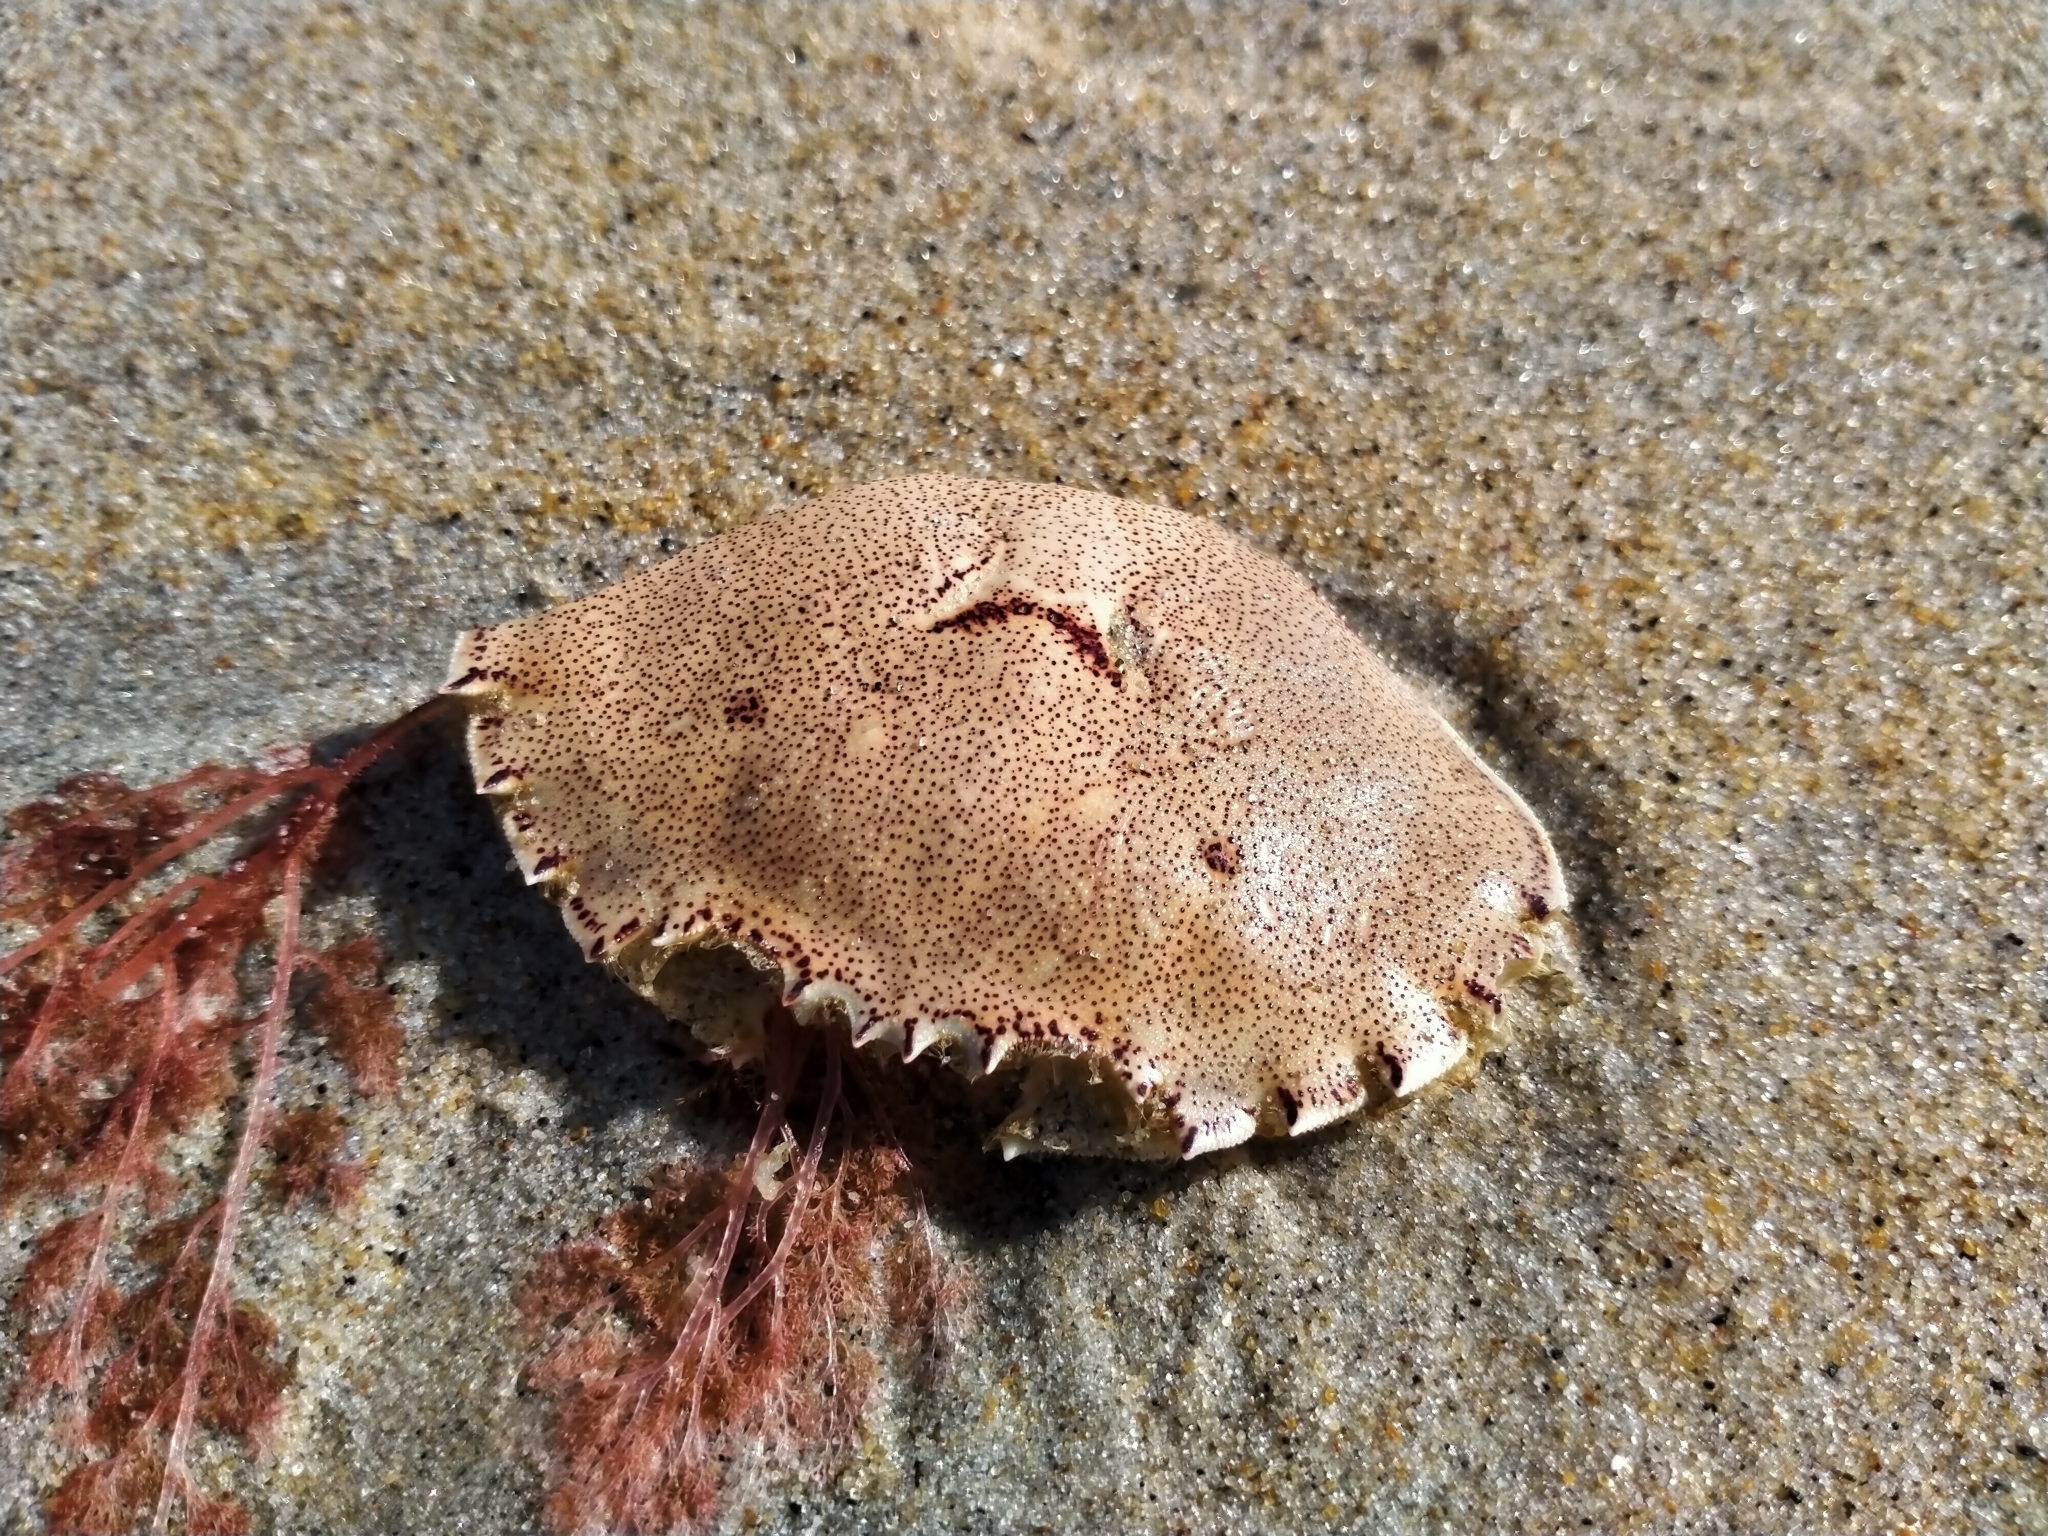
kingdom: Animalia
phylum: Arthropoda
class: Malacostraca
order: Decapoda
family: Ovalipidae
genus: Ovalipes
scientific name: Ovalipes catharus
